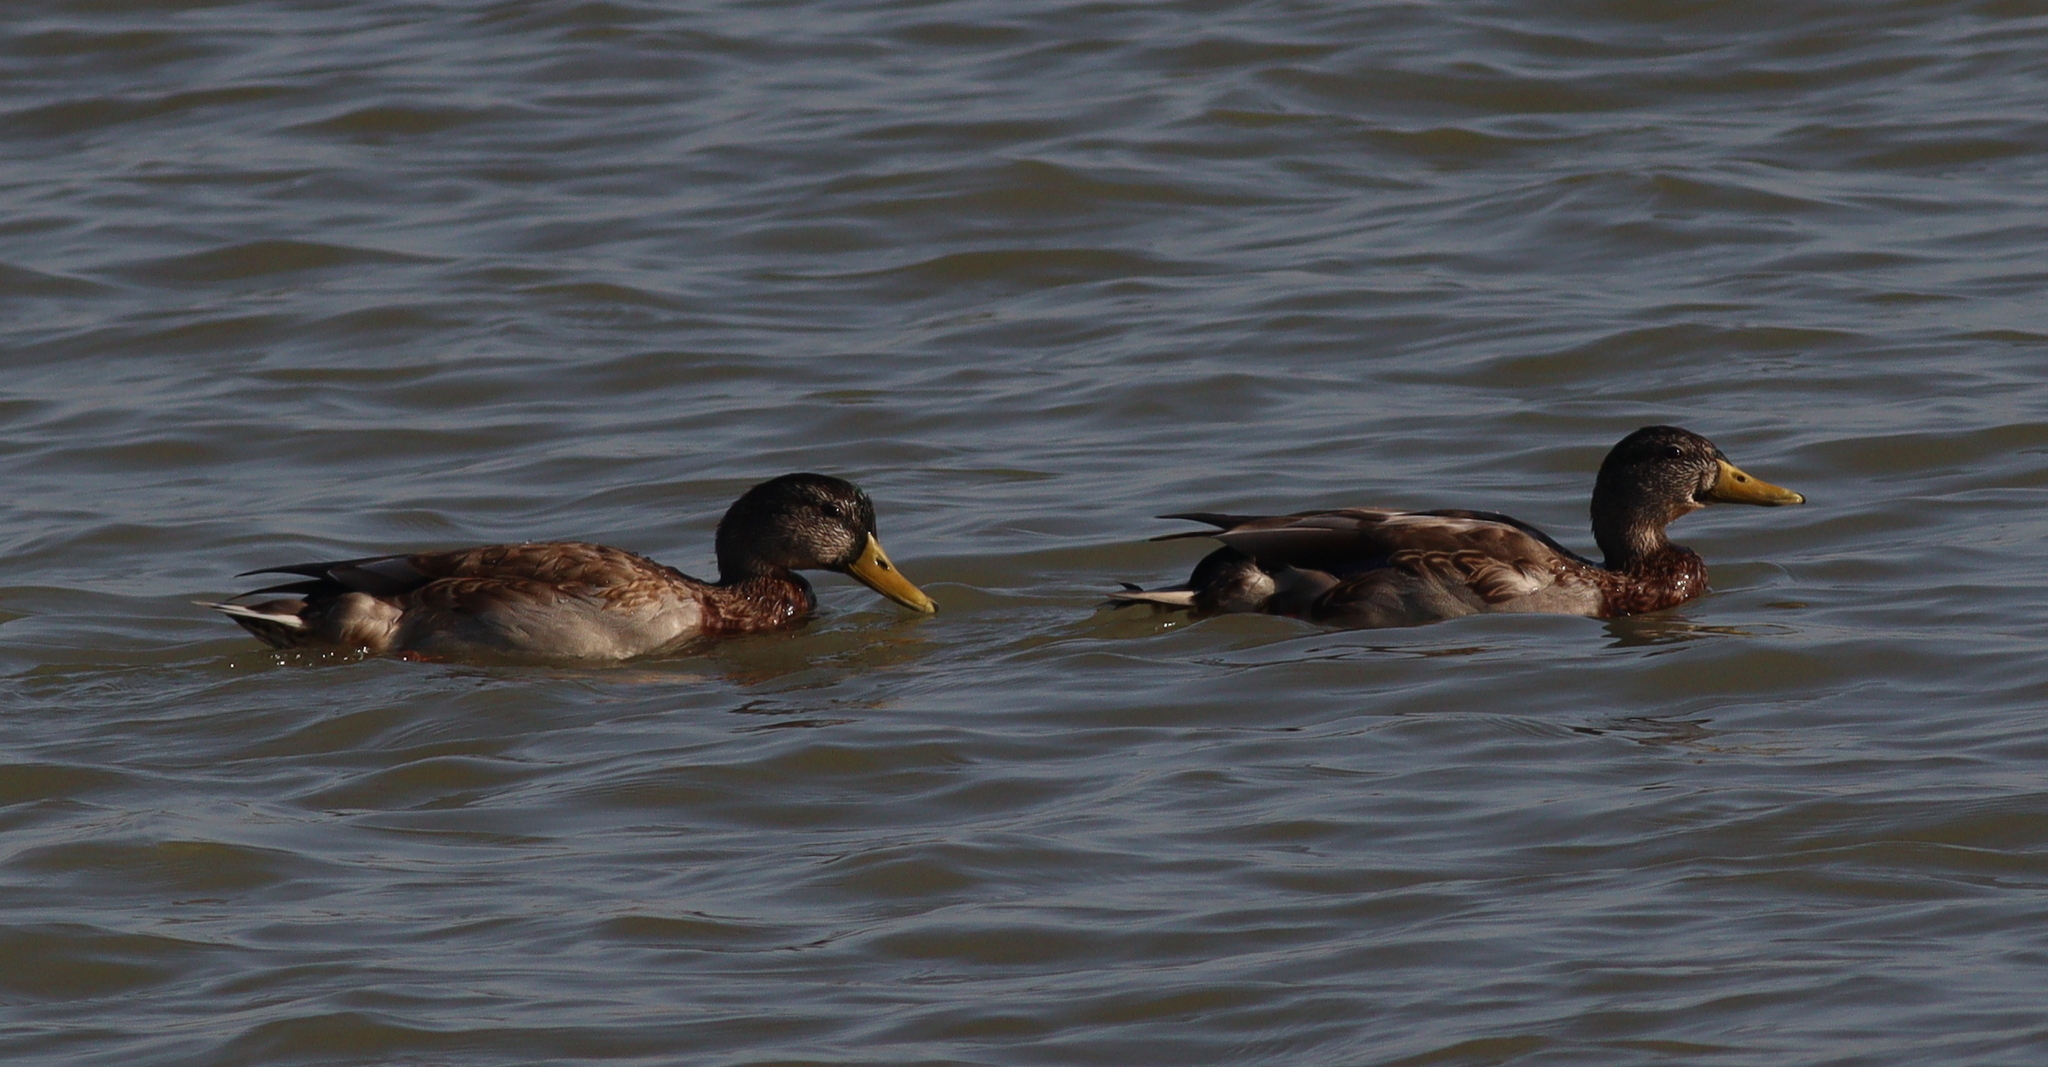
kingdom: Animalia
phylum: Chordata
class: Aves
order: Anseriformes
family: Anatidae
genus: Anas
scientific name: Anas platyrhynchos
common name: Mallard
